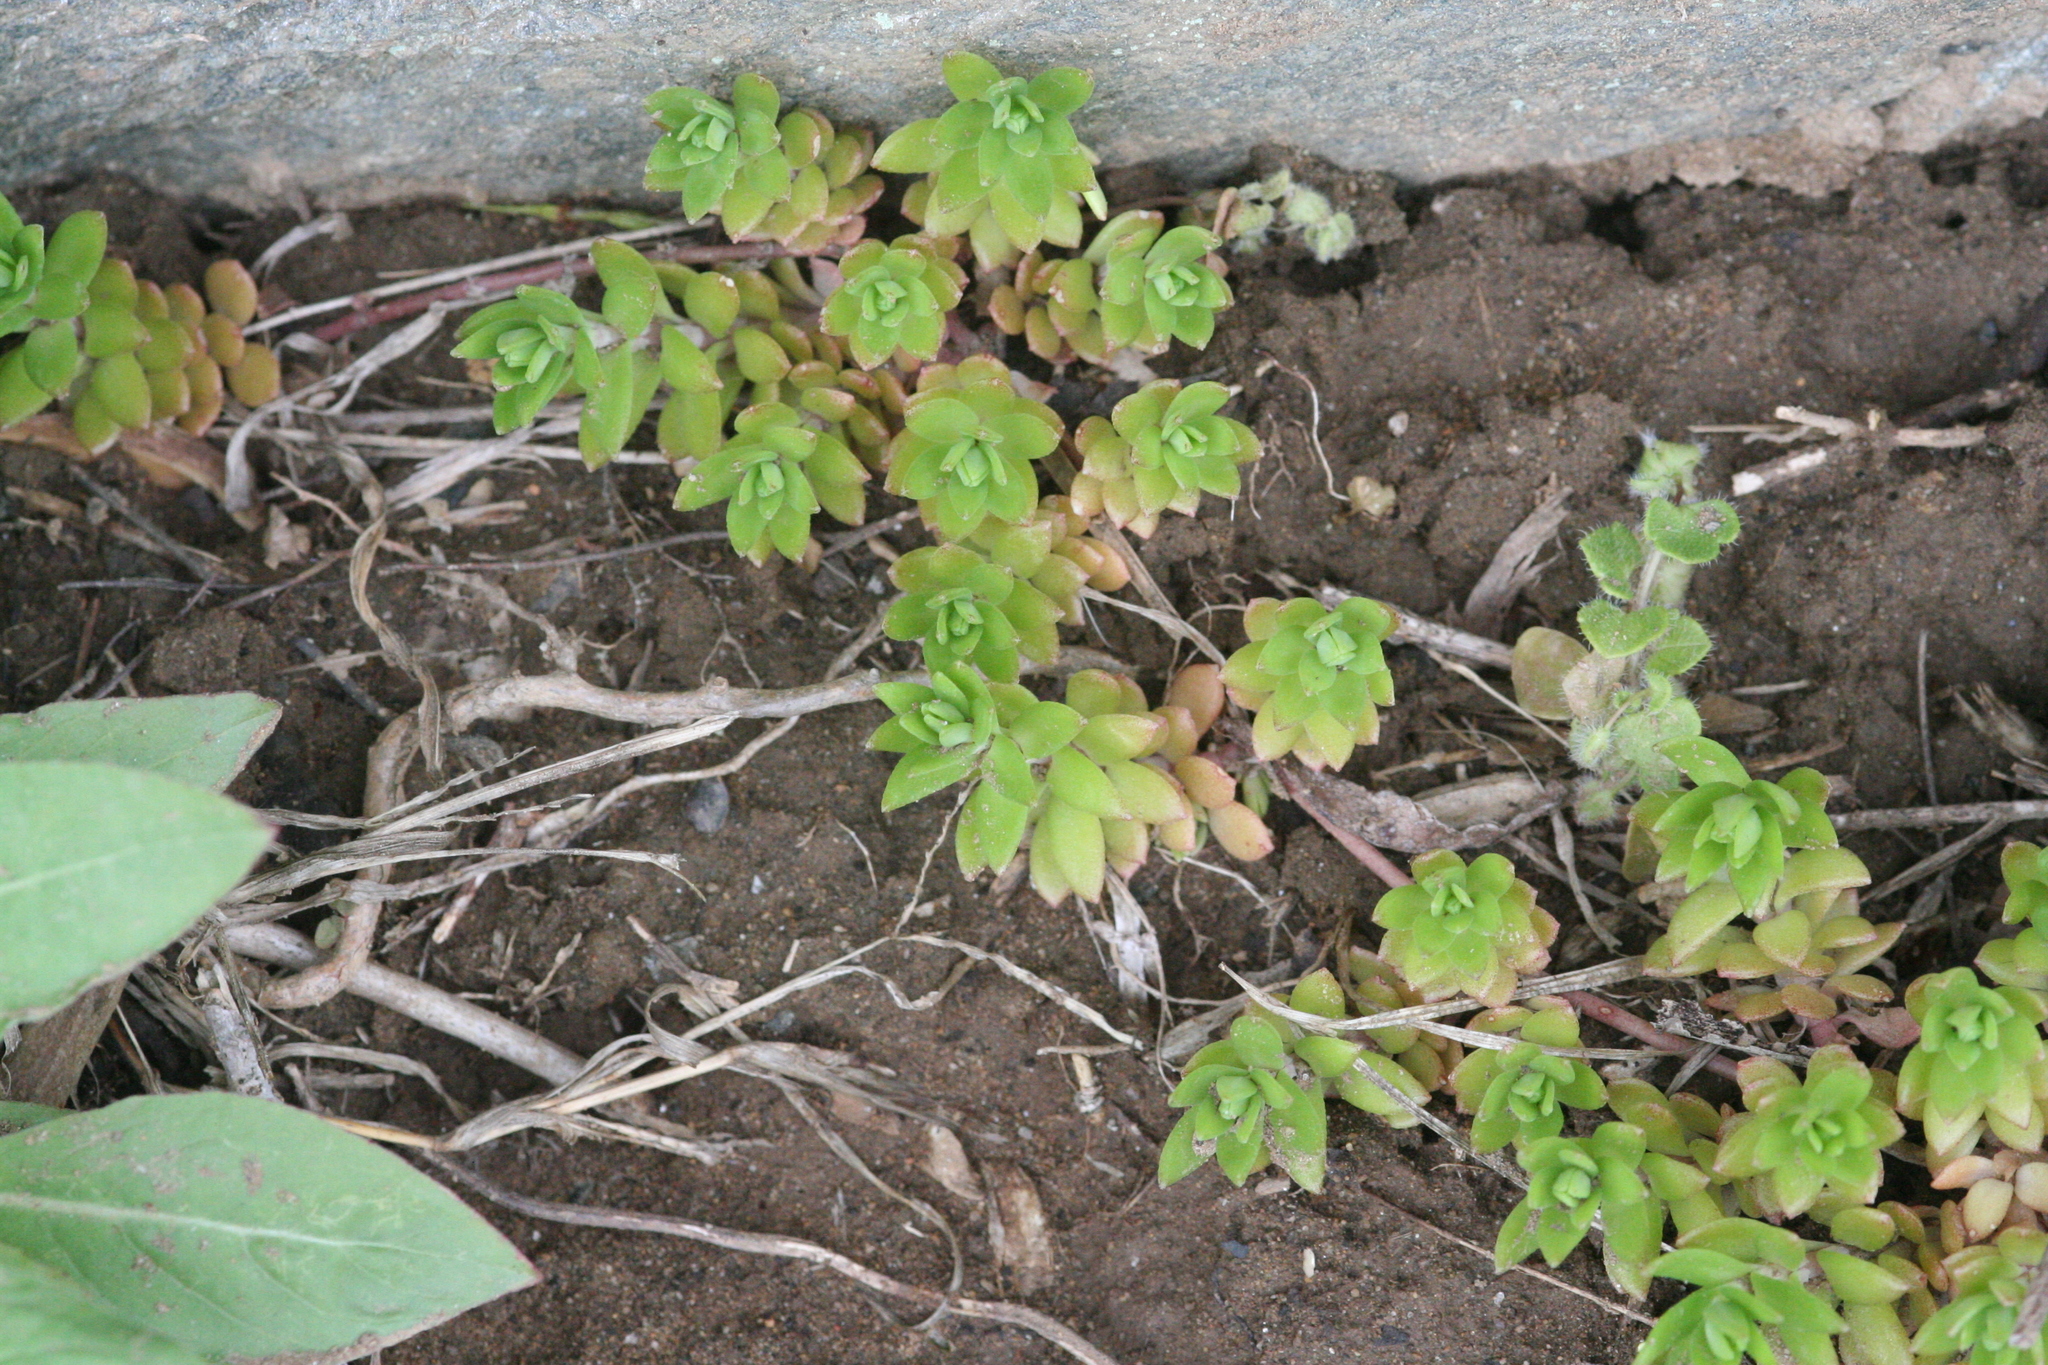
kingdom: Plantae
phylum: Tracheophyta
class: Magnoliopsida
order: Saxifragales
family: Crassulaceae
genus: Sedum
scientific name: Sedum sarmentosum
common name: Stringy stonecrop
